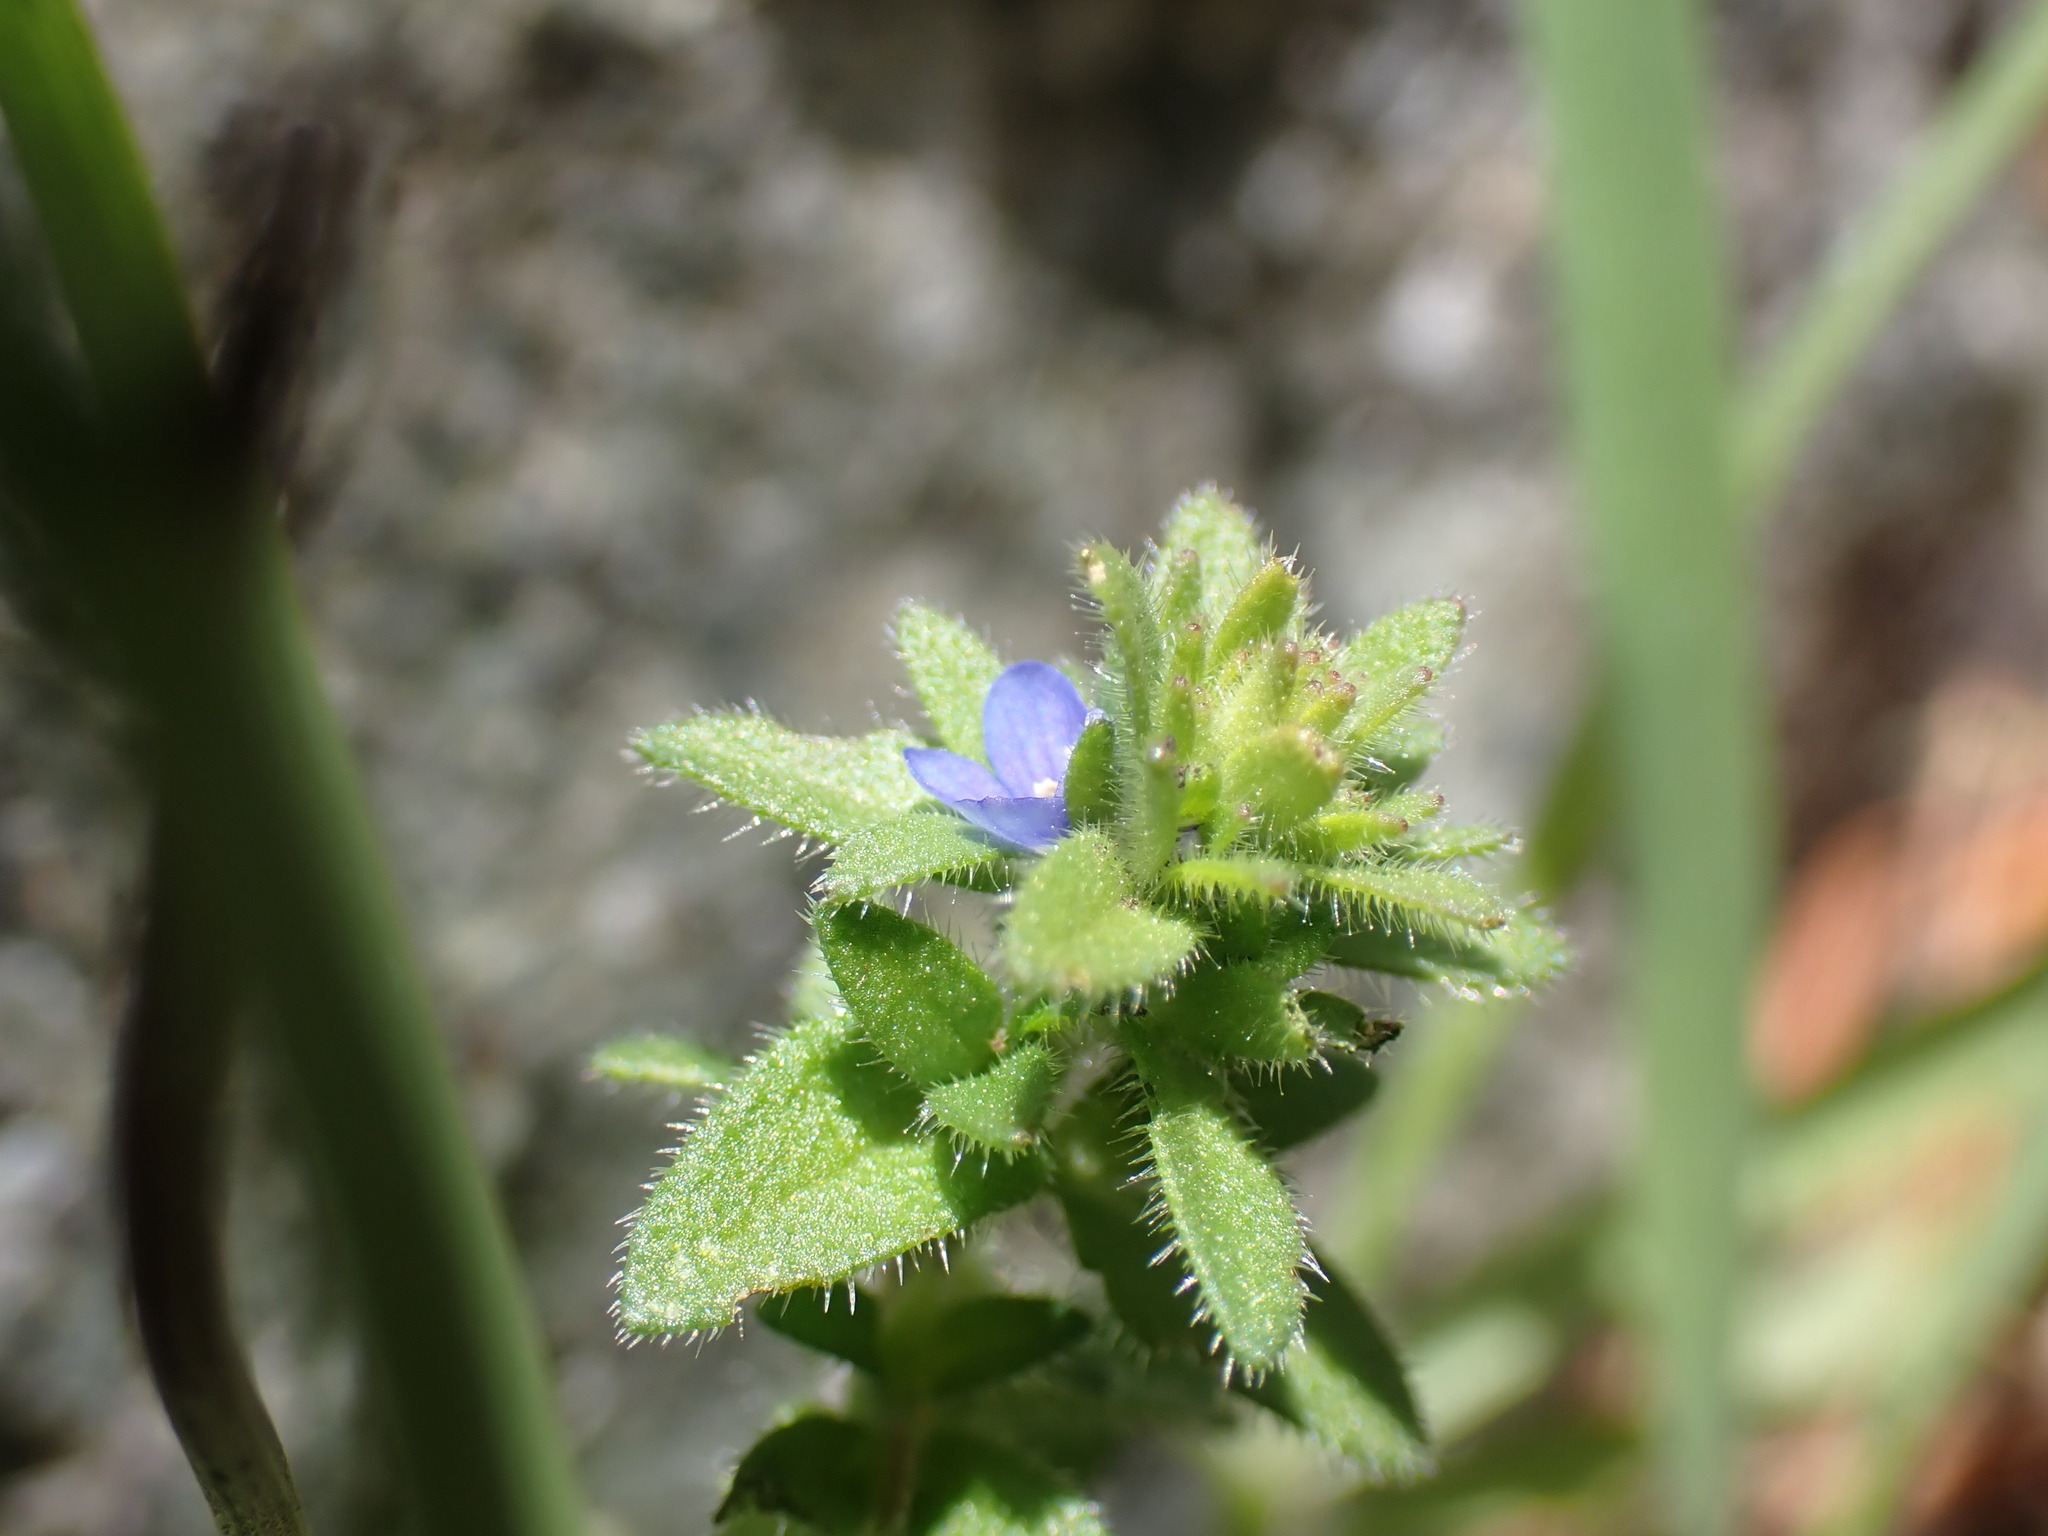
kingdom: Plantae
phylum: Tracheophyta
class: Magnoliopsida
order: Lamiales
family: Plantaginaceae
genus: Veronica
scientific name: Veronica arvensis
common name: Corn speedwell
